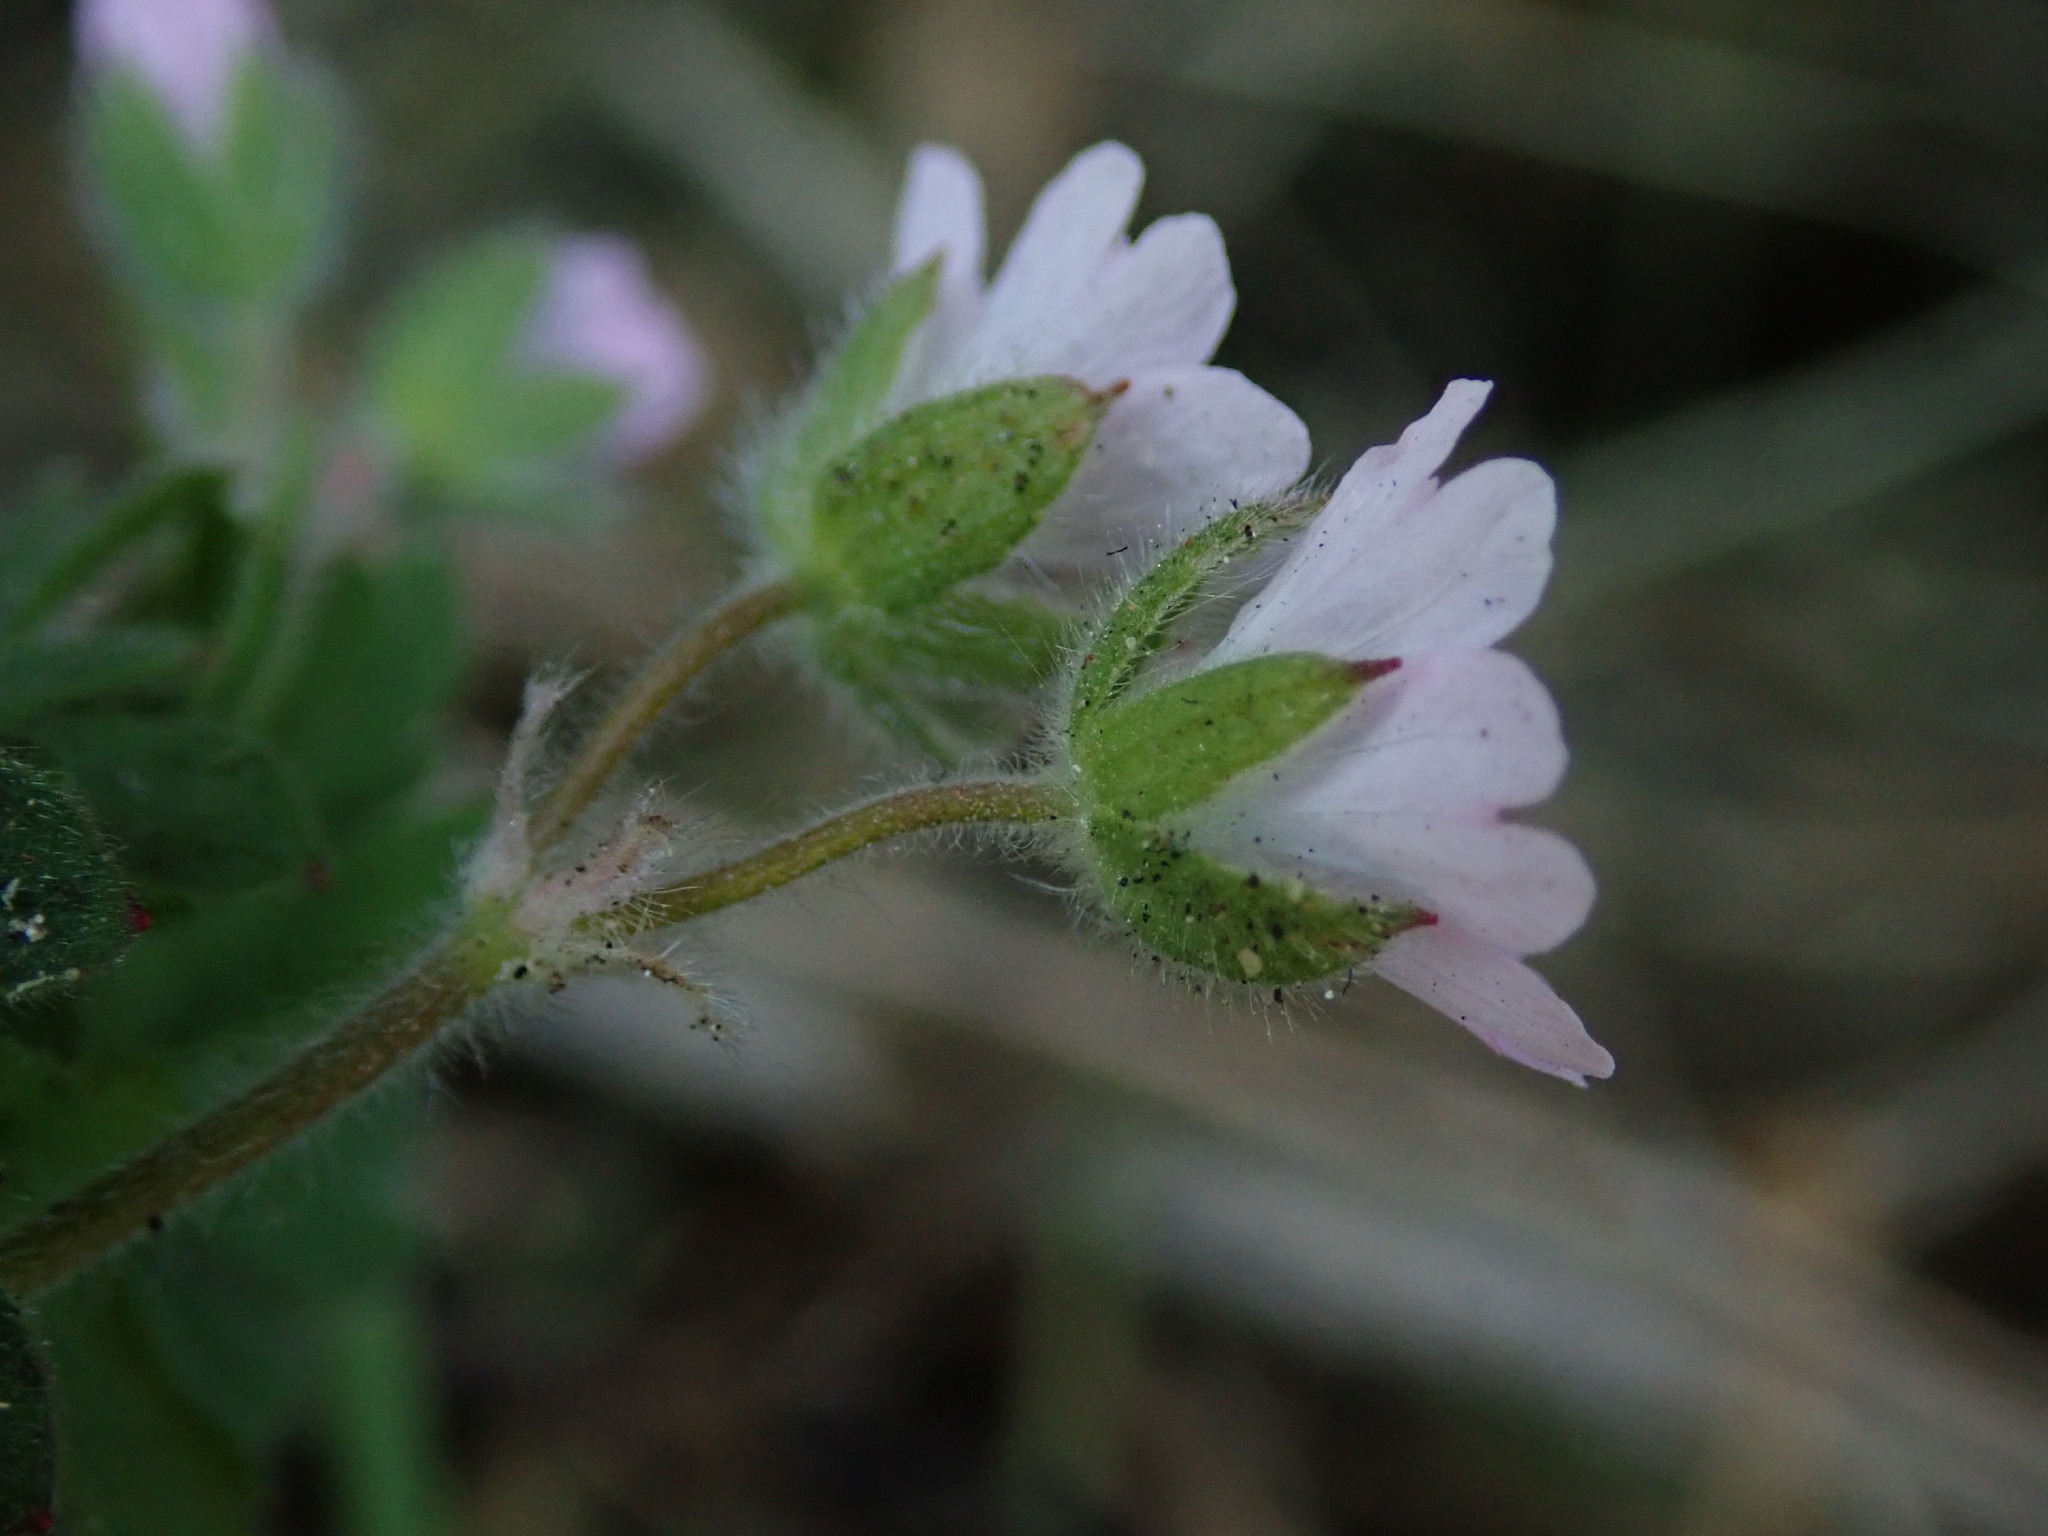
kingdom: Plantae
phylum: Tracheophyta
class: Magnoliopsida
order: Geraniales
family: Geraniaceae
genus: Geranium
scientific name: Geranium molle
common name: Dove's-foot crane's-bill
